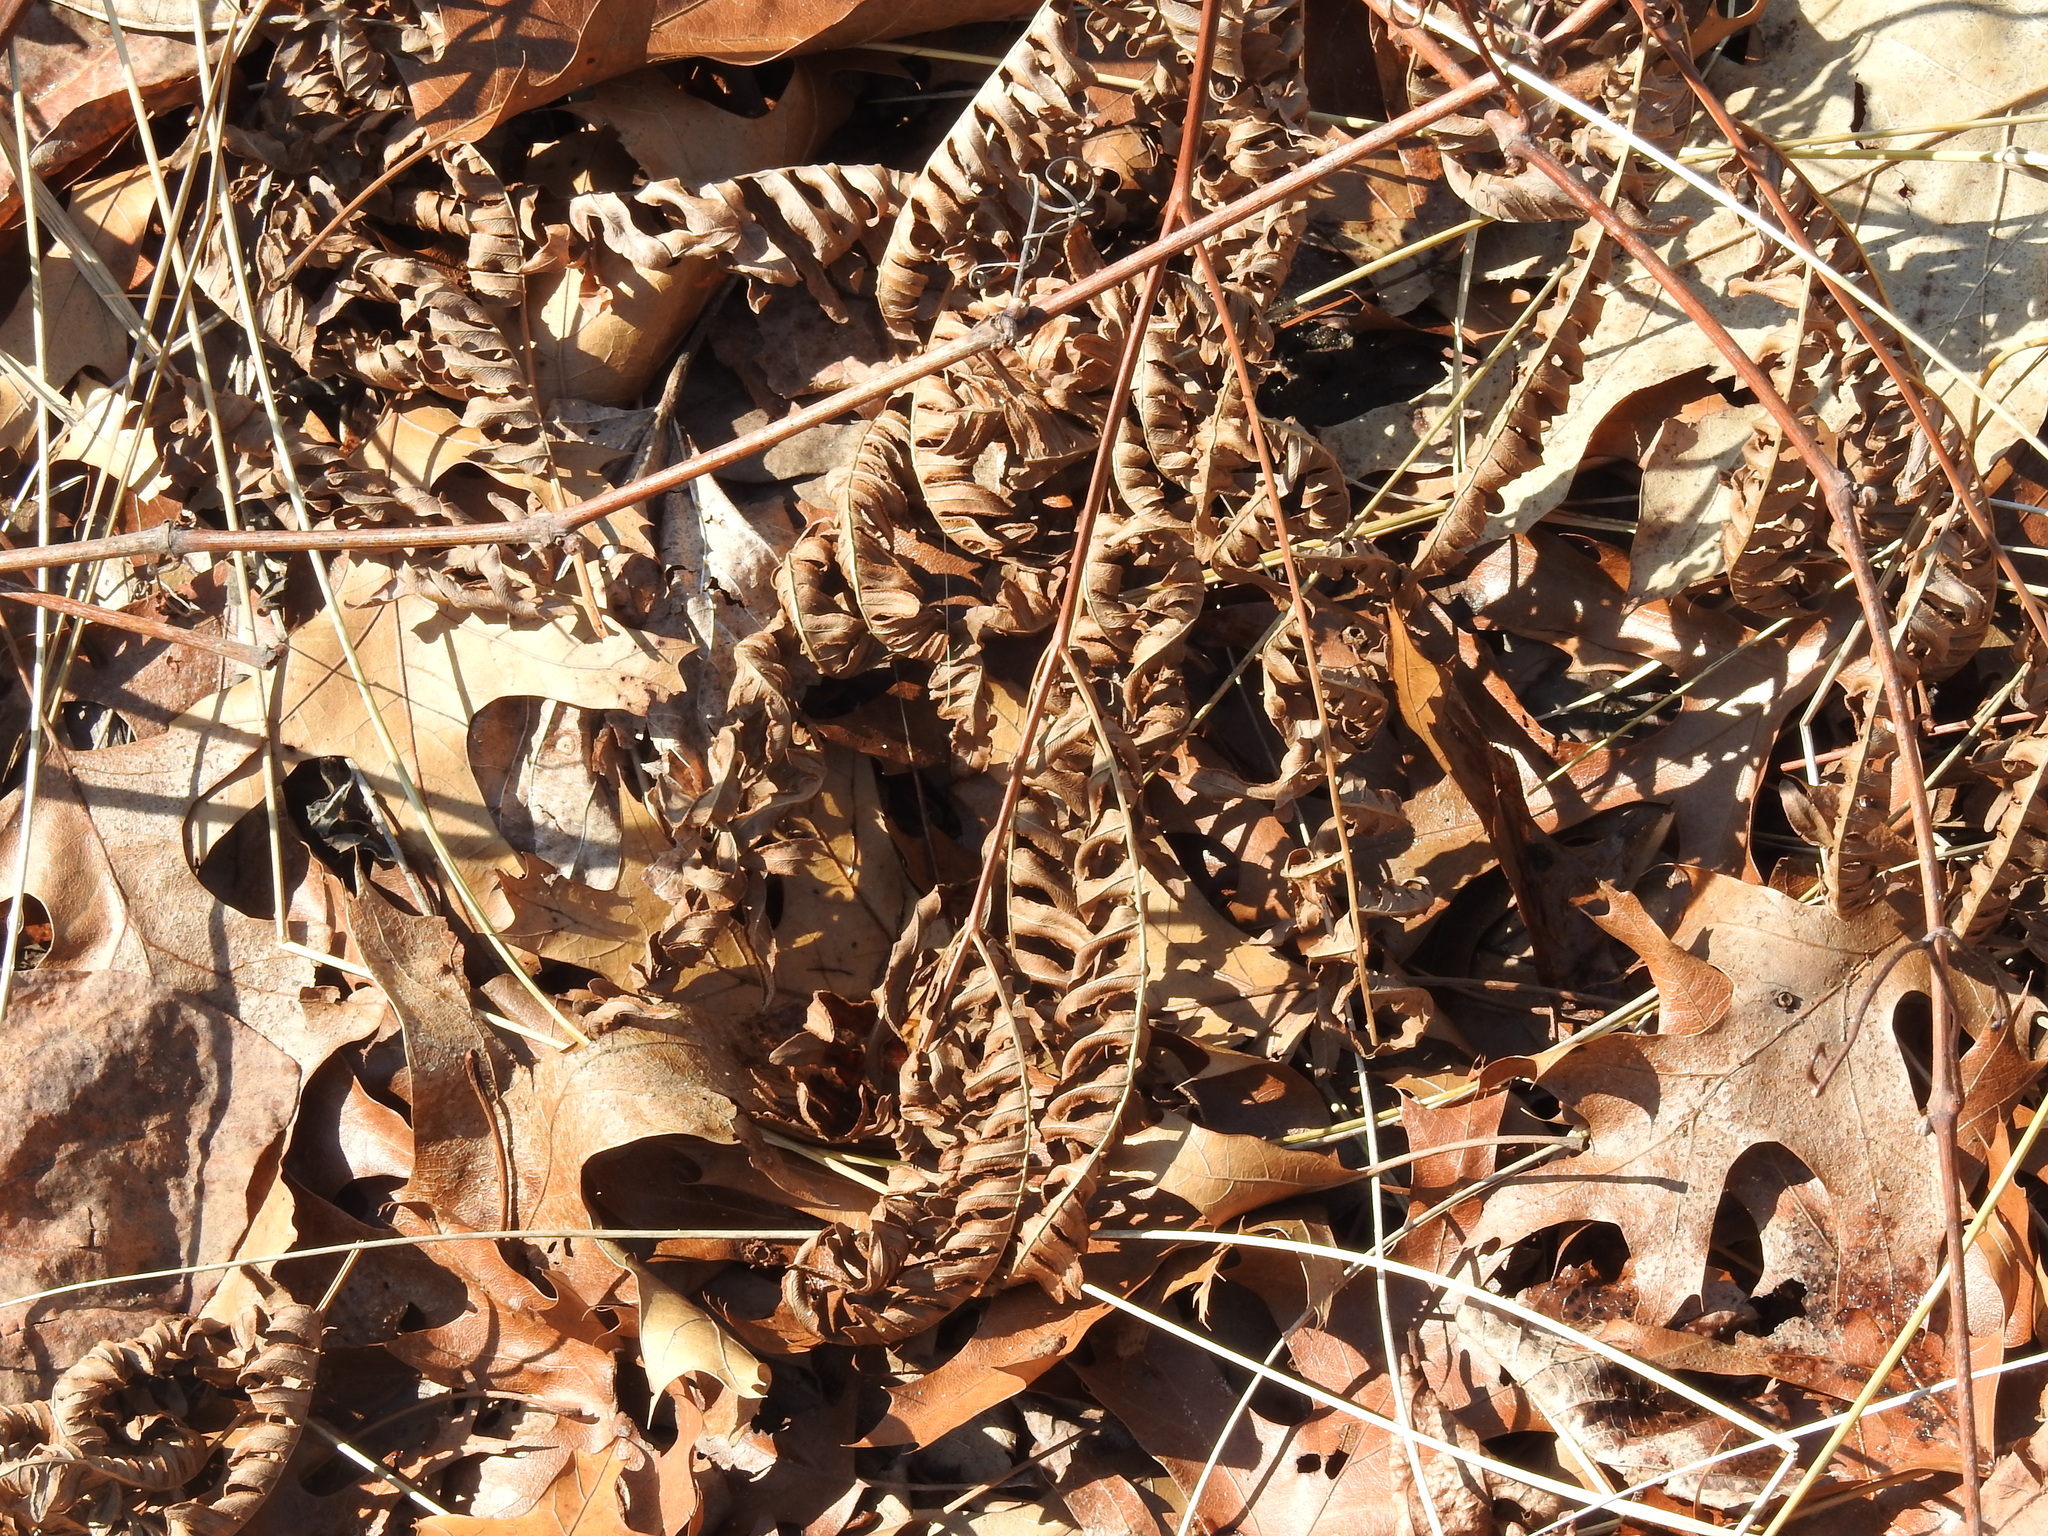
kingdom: Plantae
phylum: Tracheophyta
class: Polypodiopsida
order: Polypodiales
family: Dennstaedtiaceae
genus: Pteridium
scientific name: Pteridium aquilinum
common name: Bracken
